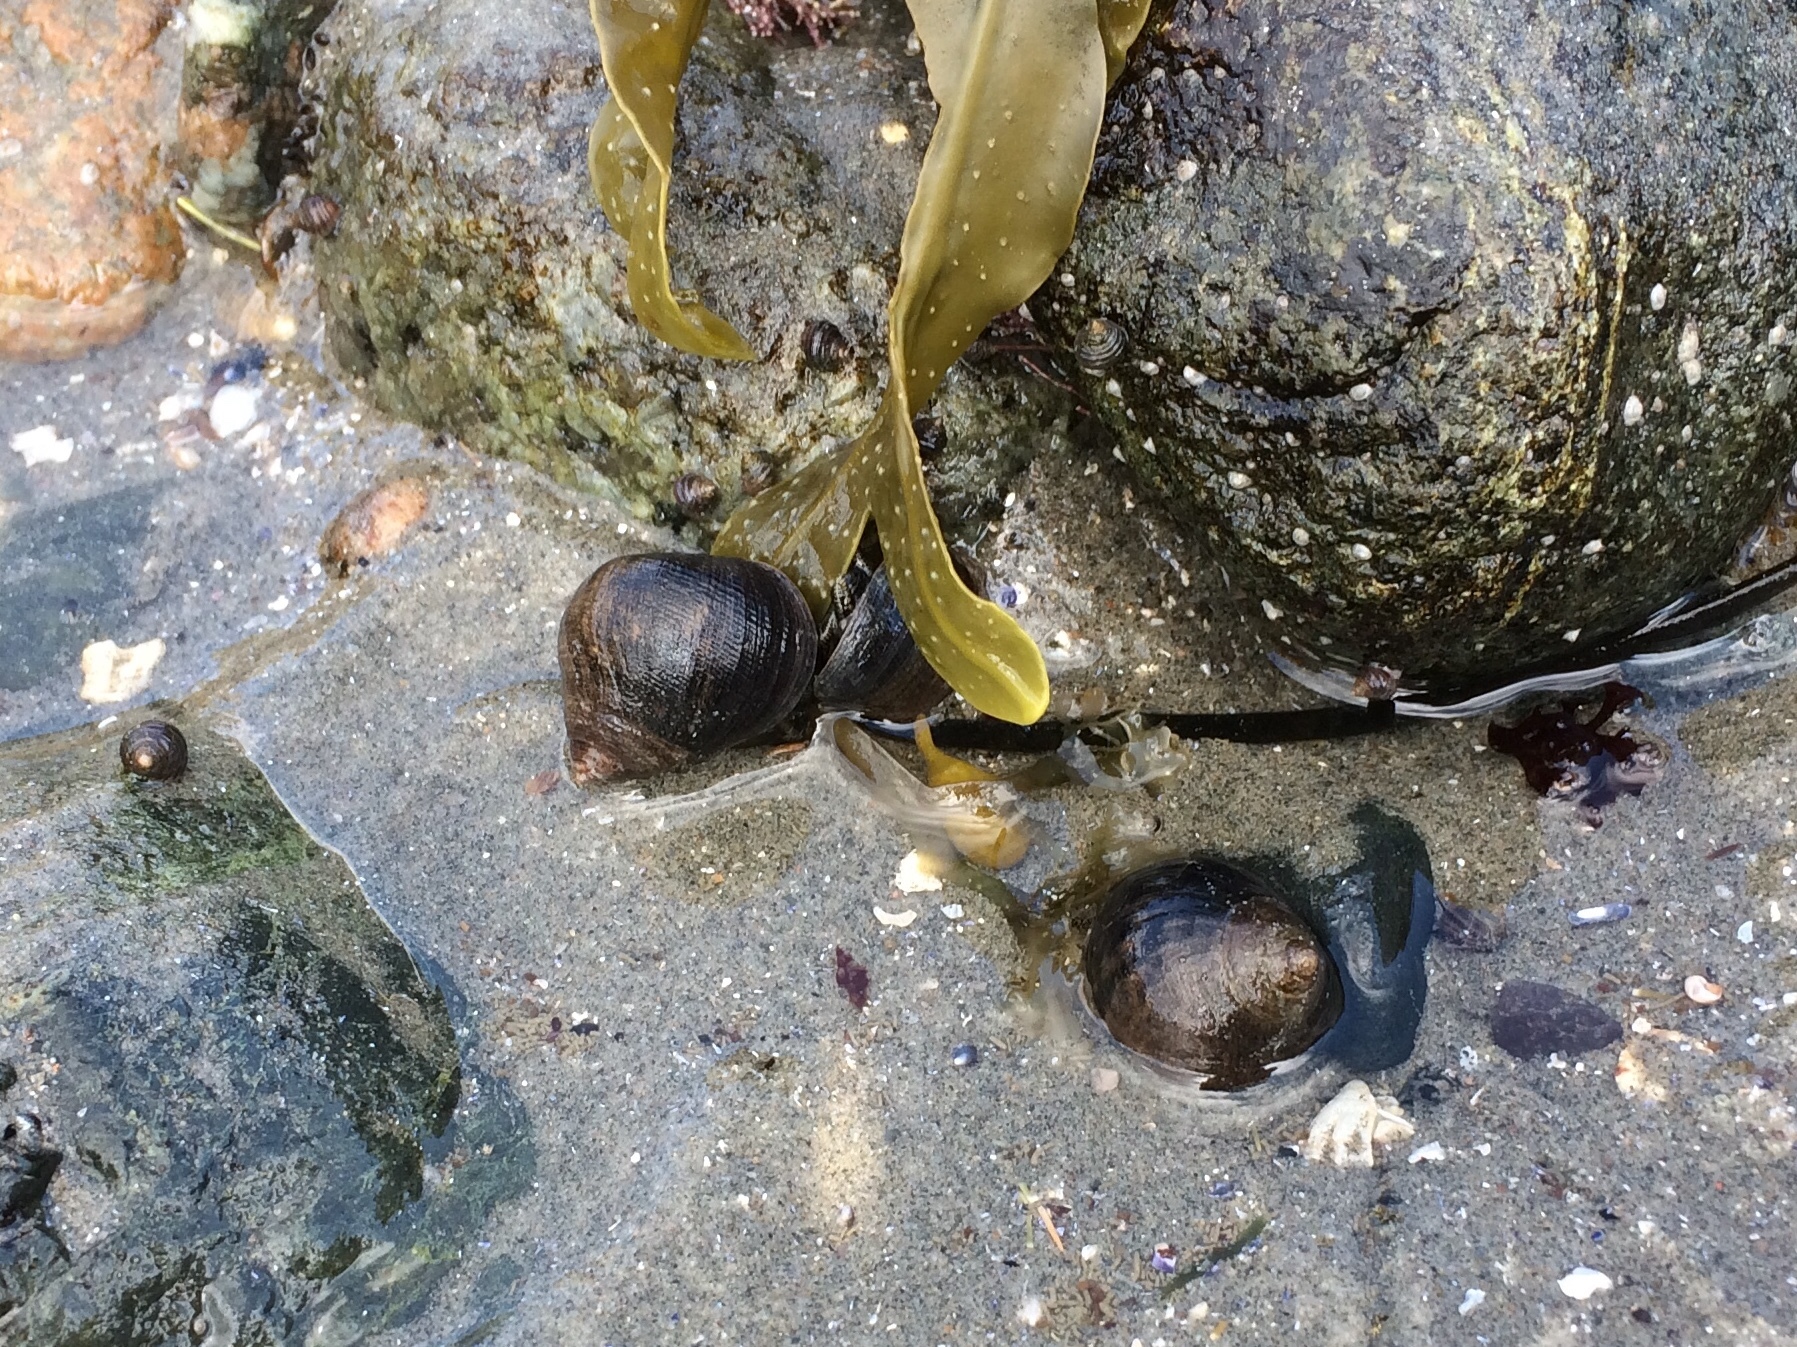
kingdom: Animalia
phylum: Mollusca
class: Gastropoda
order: Littorinimorpha
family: Littorinidae
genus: Littorina
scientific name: Littorina littorea
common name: Common periwinkle
